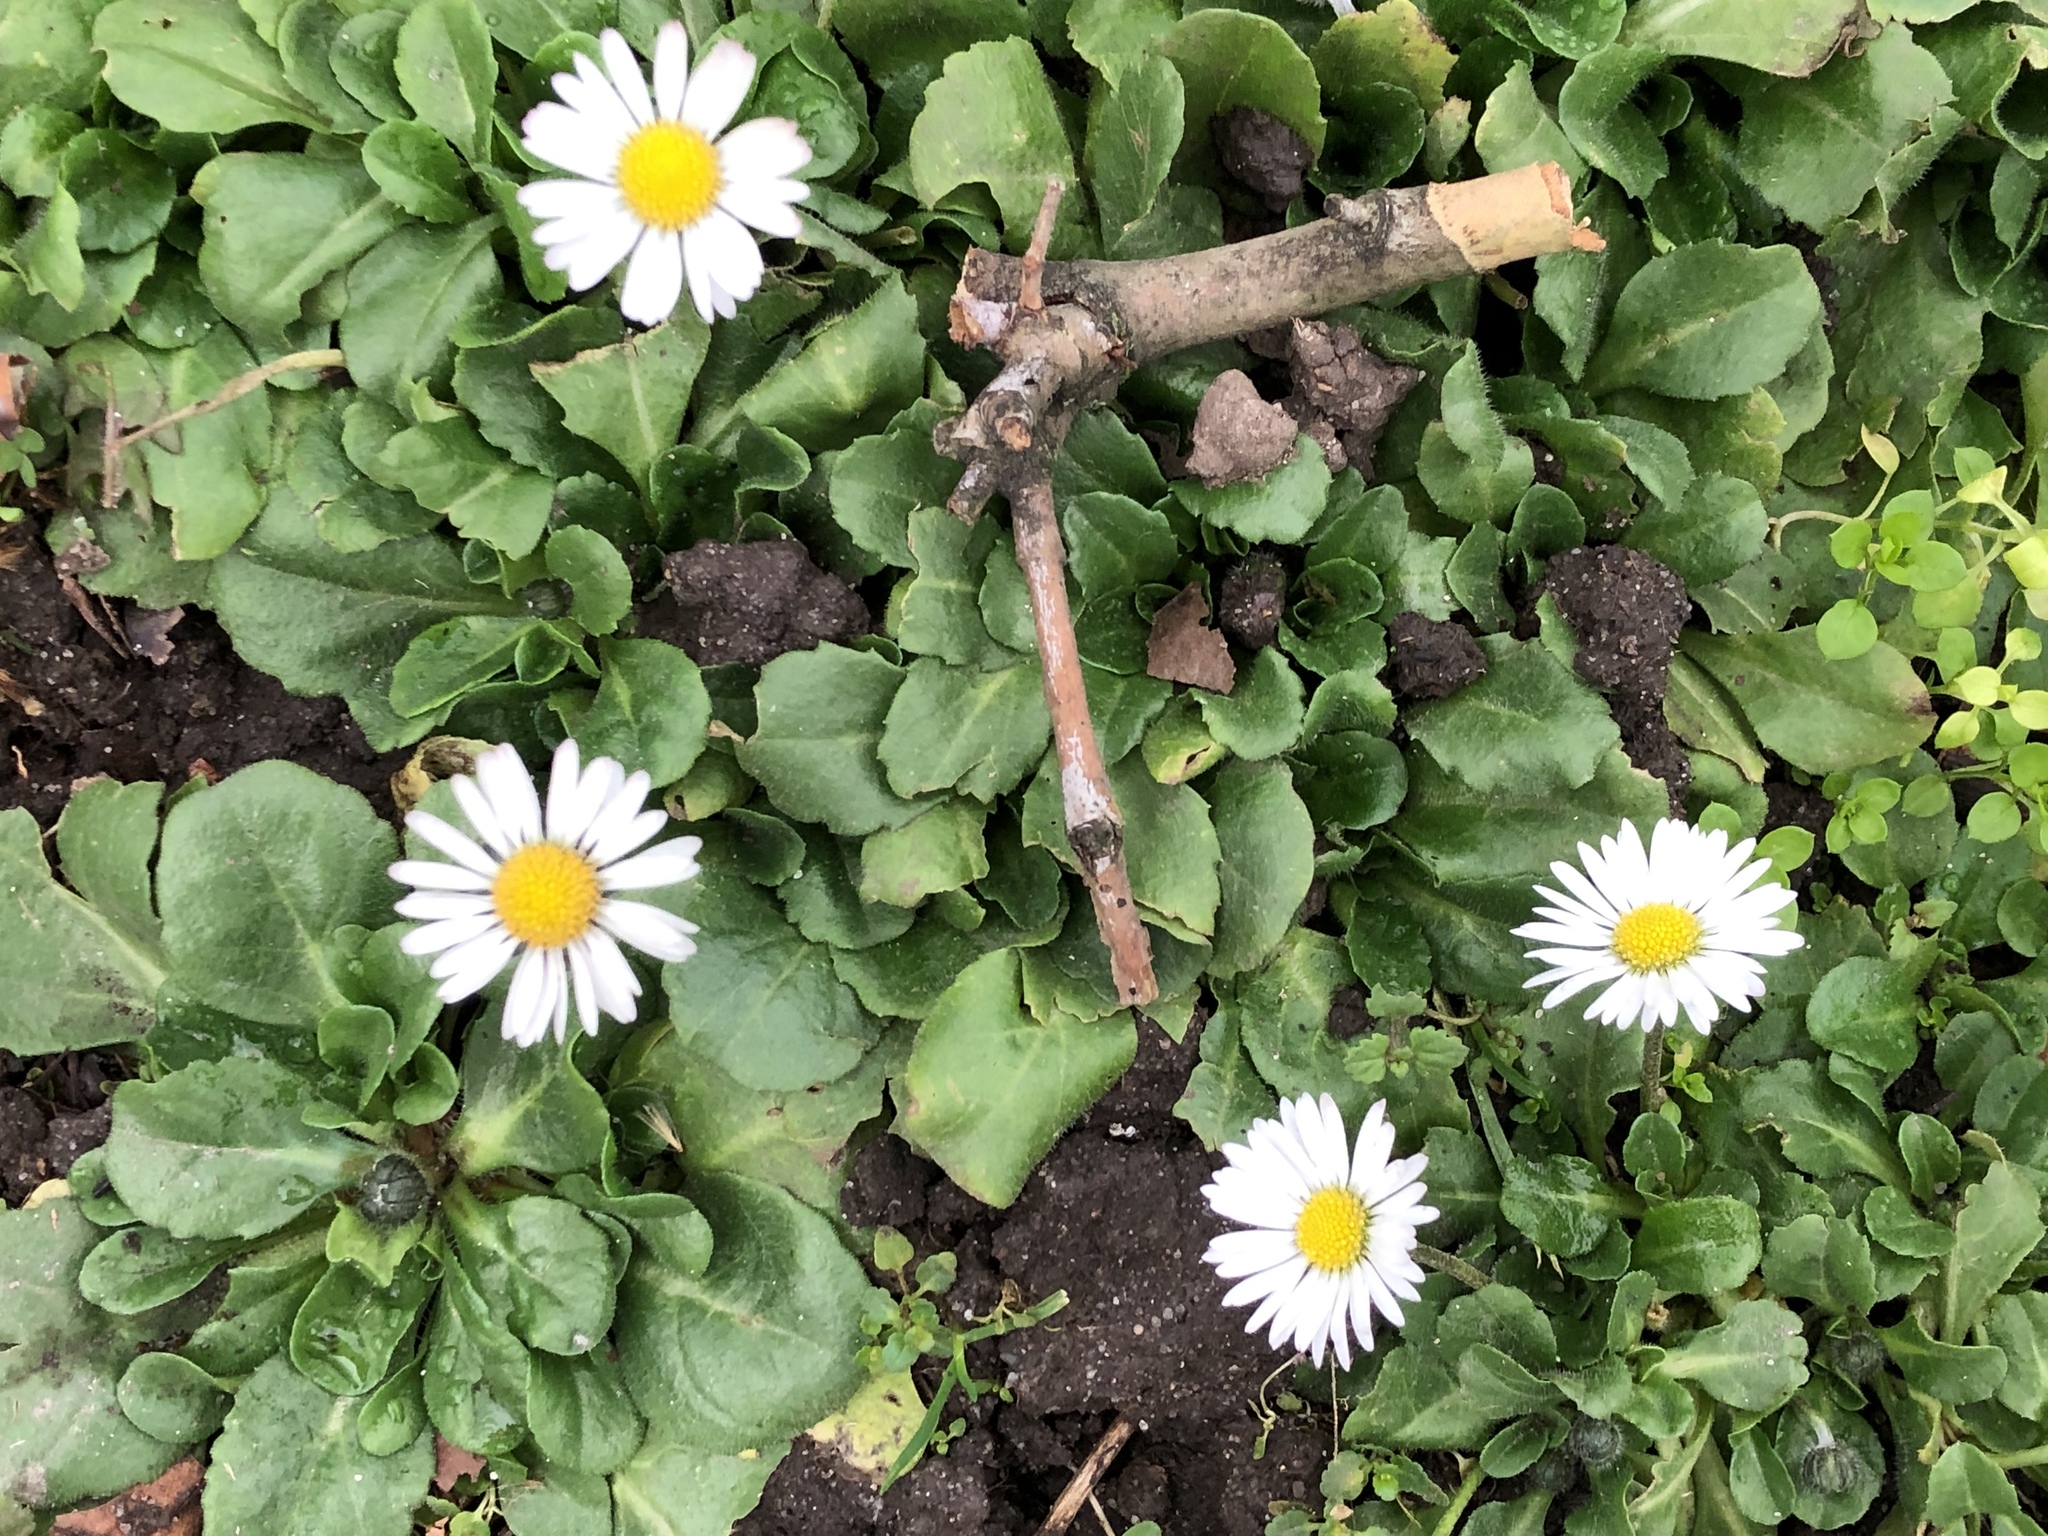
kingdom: Plantae
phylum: Tracheophyta
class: Magnoliopsida
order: Asterales
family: Asteraceae
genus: Bellis
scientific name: Bellis perennis
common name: Lawndaisy
